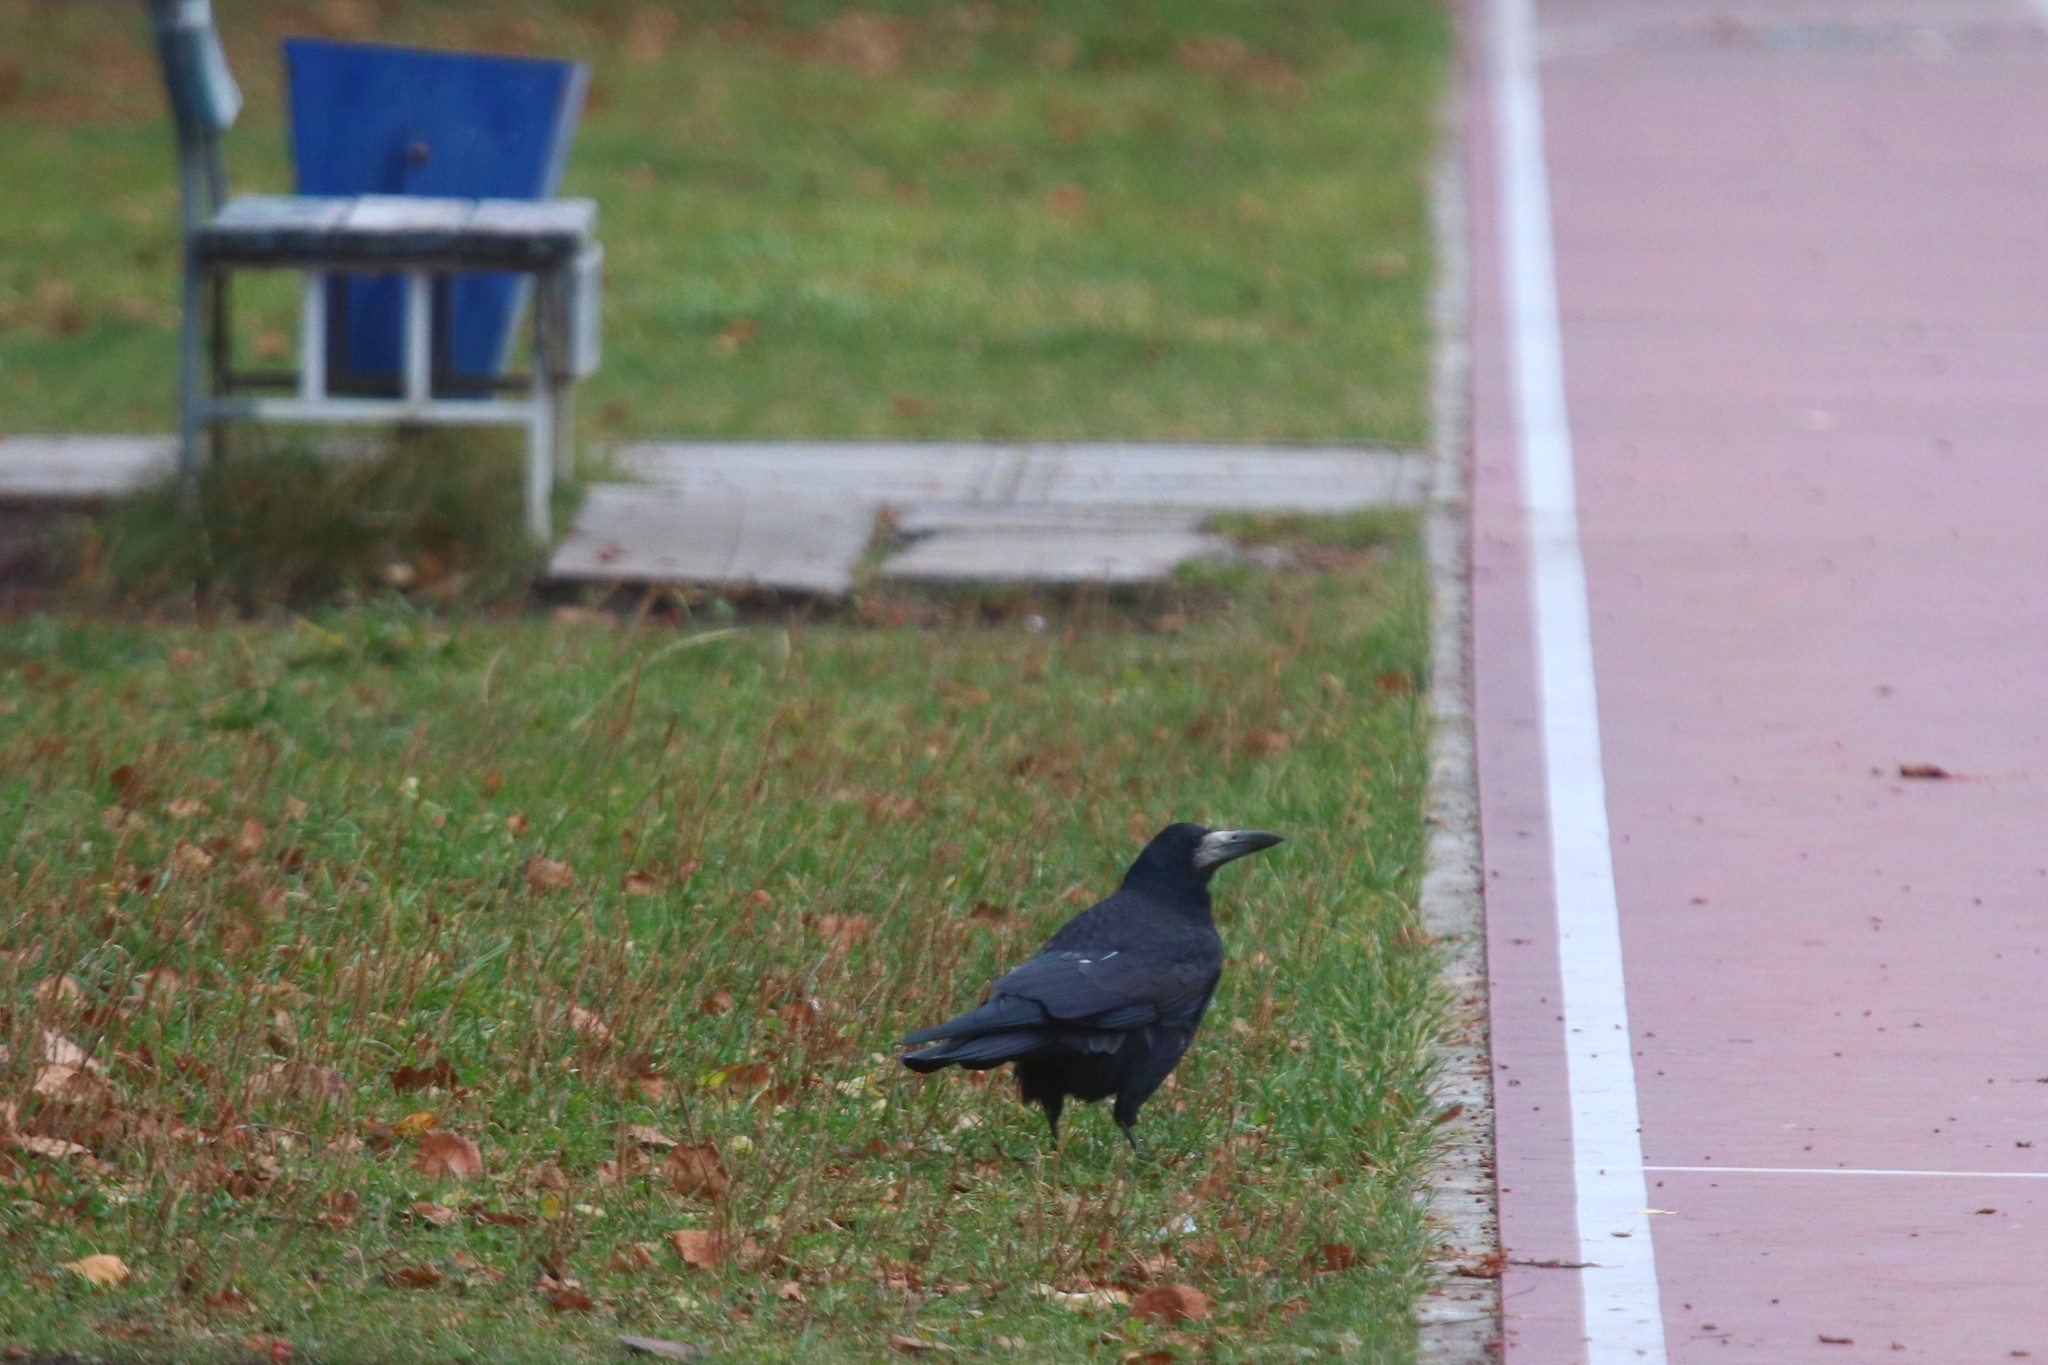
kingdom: Animalia
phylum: Chordata
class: Aves
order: Passeriformes
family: Corvidae
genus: Corvus
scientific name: Corvus frugilegus
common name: Rook
